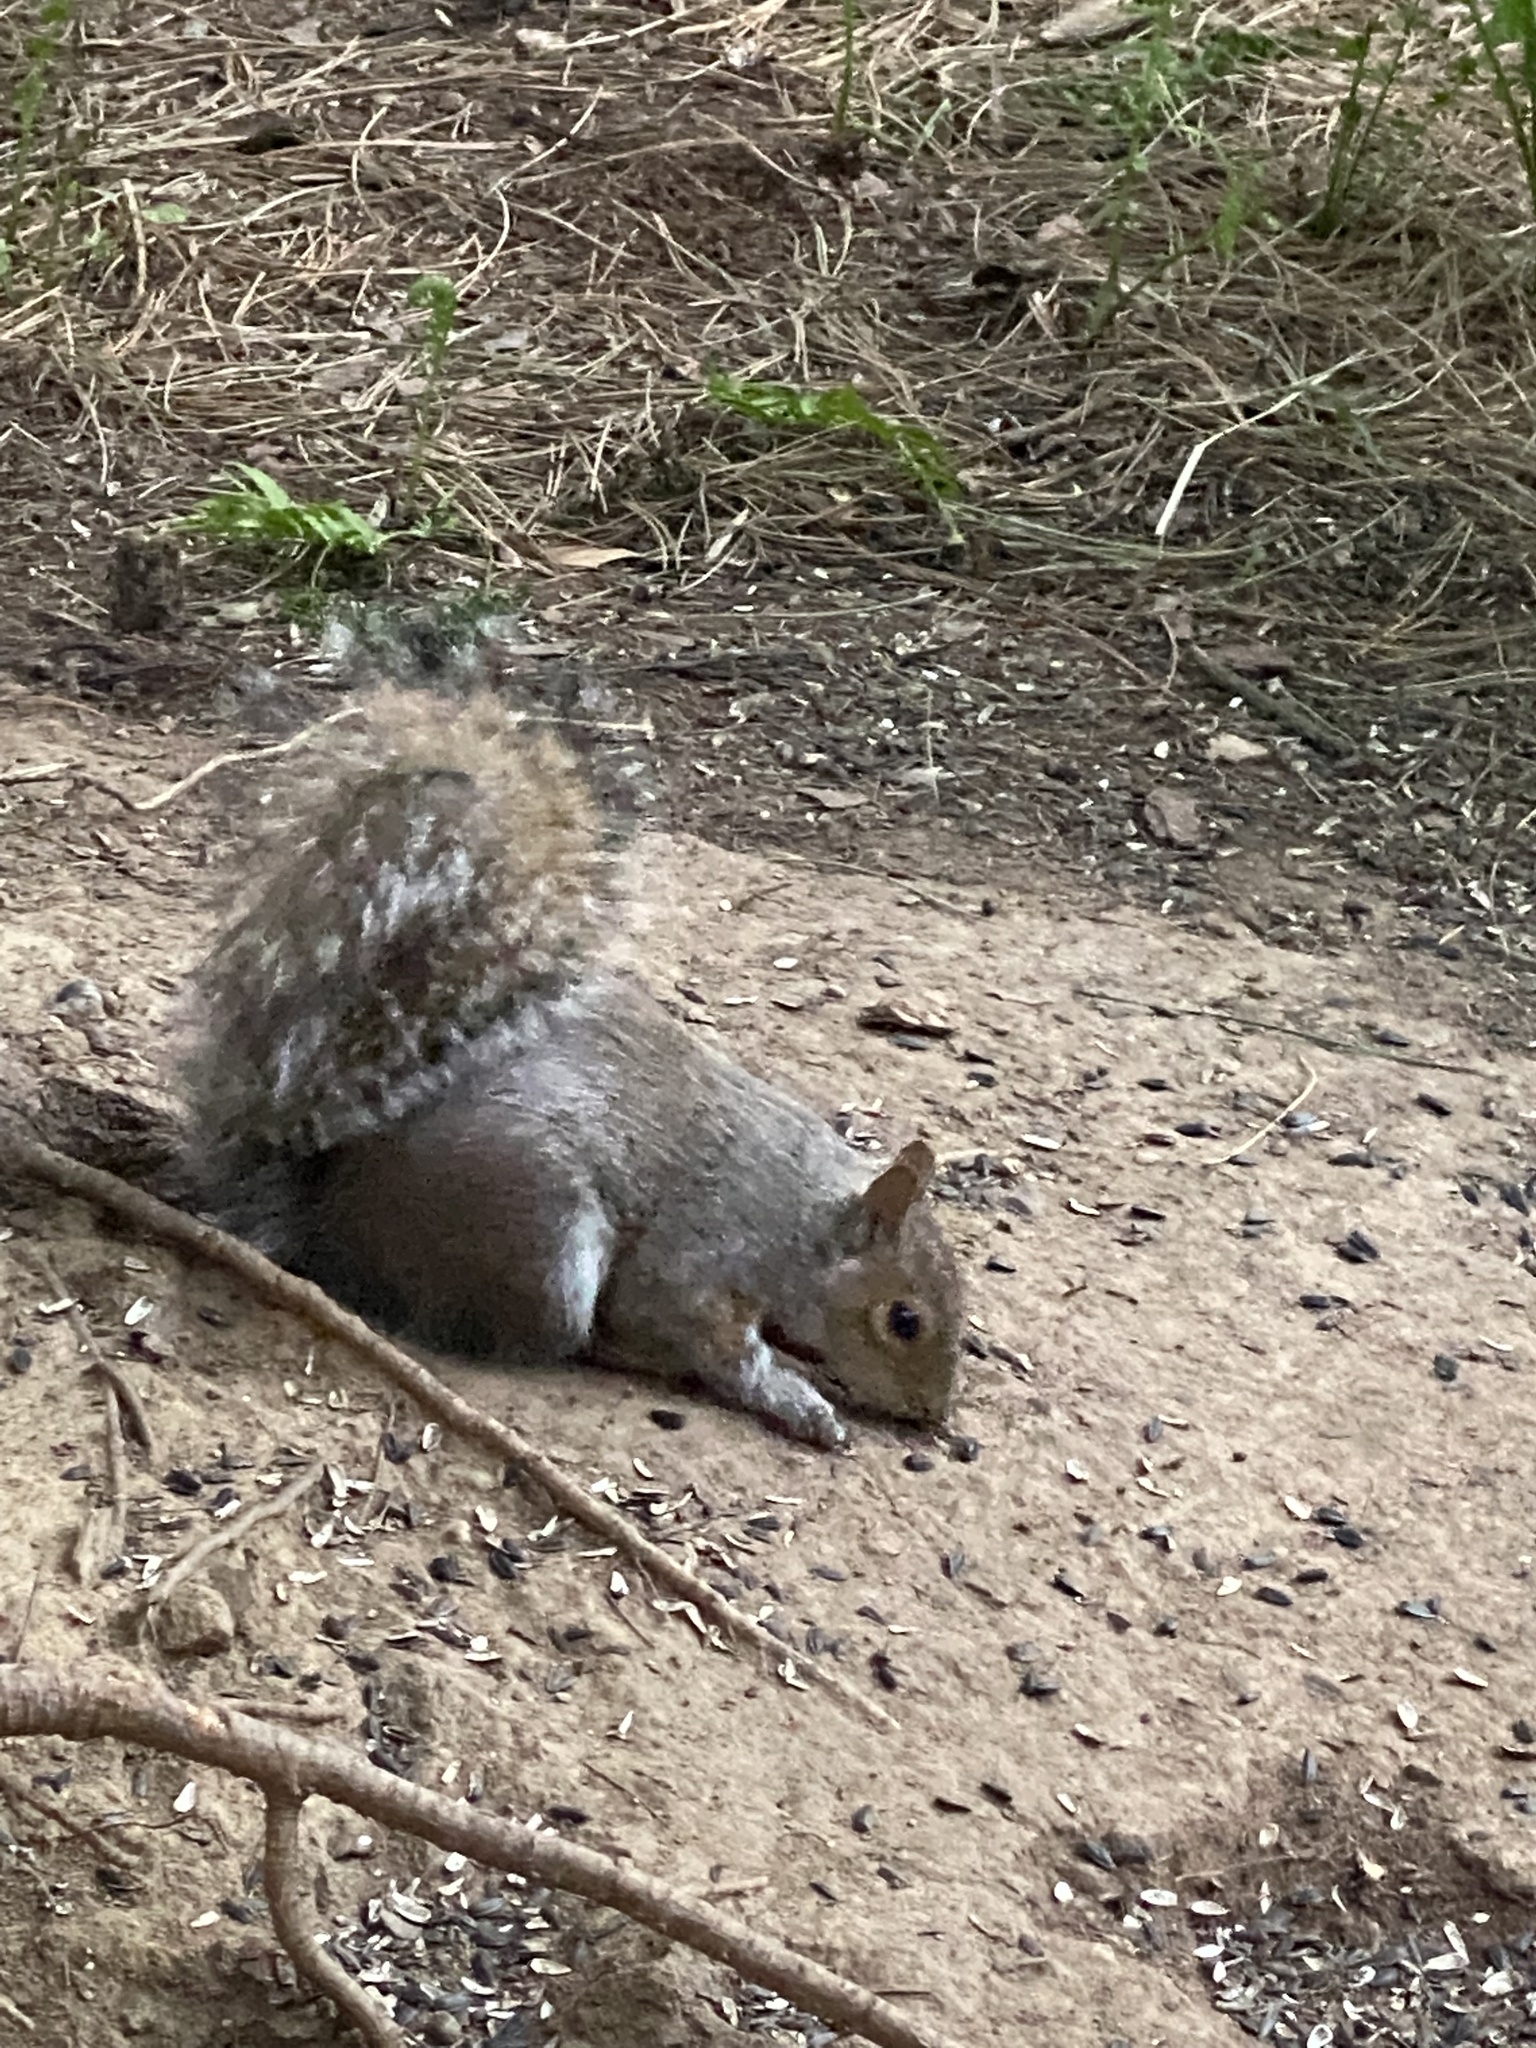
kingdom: Animalia
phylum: Chordata
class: Mammalia
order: Rodentia
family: Sciuridae
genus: Sciurus
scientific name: Sciurus carolinensis
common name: Eastern gray squirrel
